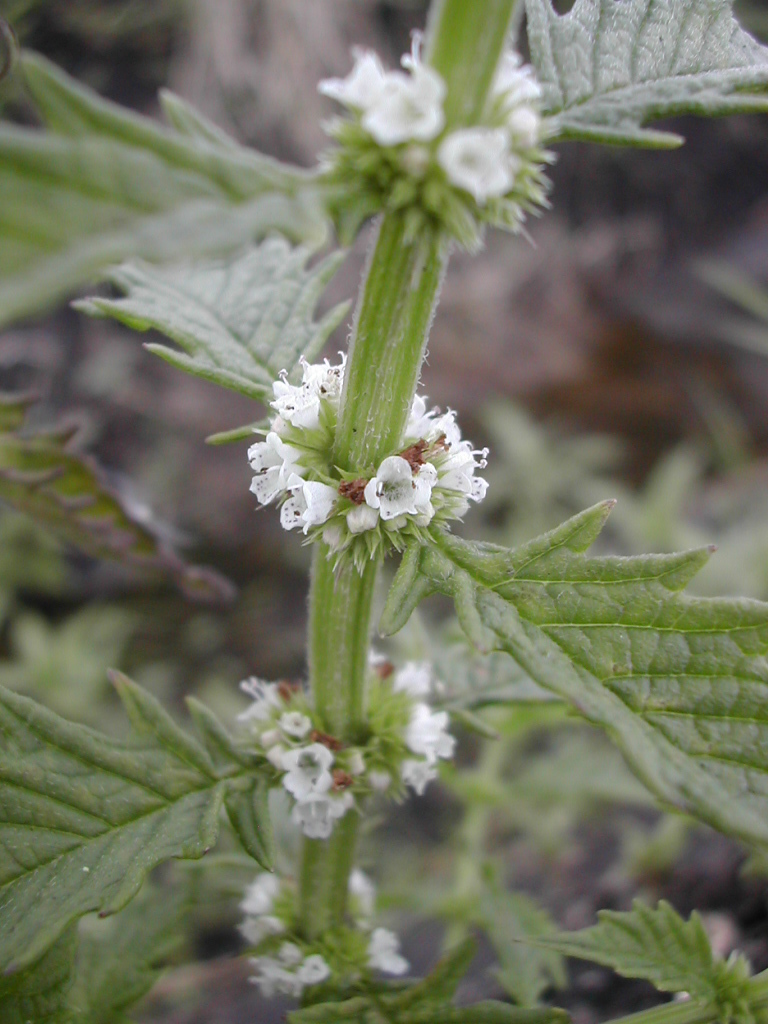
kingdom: Plantae
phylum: Tracheophyta
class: Magnoliopsida
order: Lamiales
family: Lamiaceae
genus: Lycopus
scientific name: Lycopus europaeus
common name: European bugleweed
